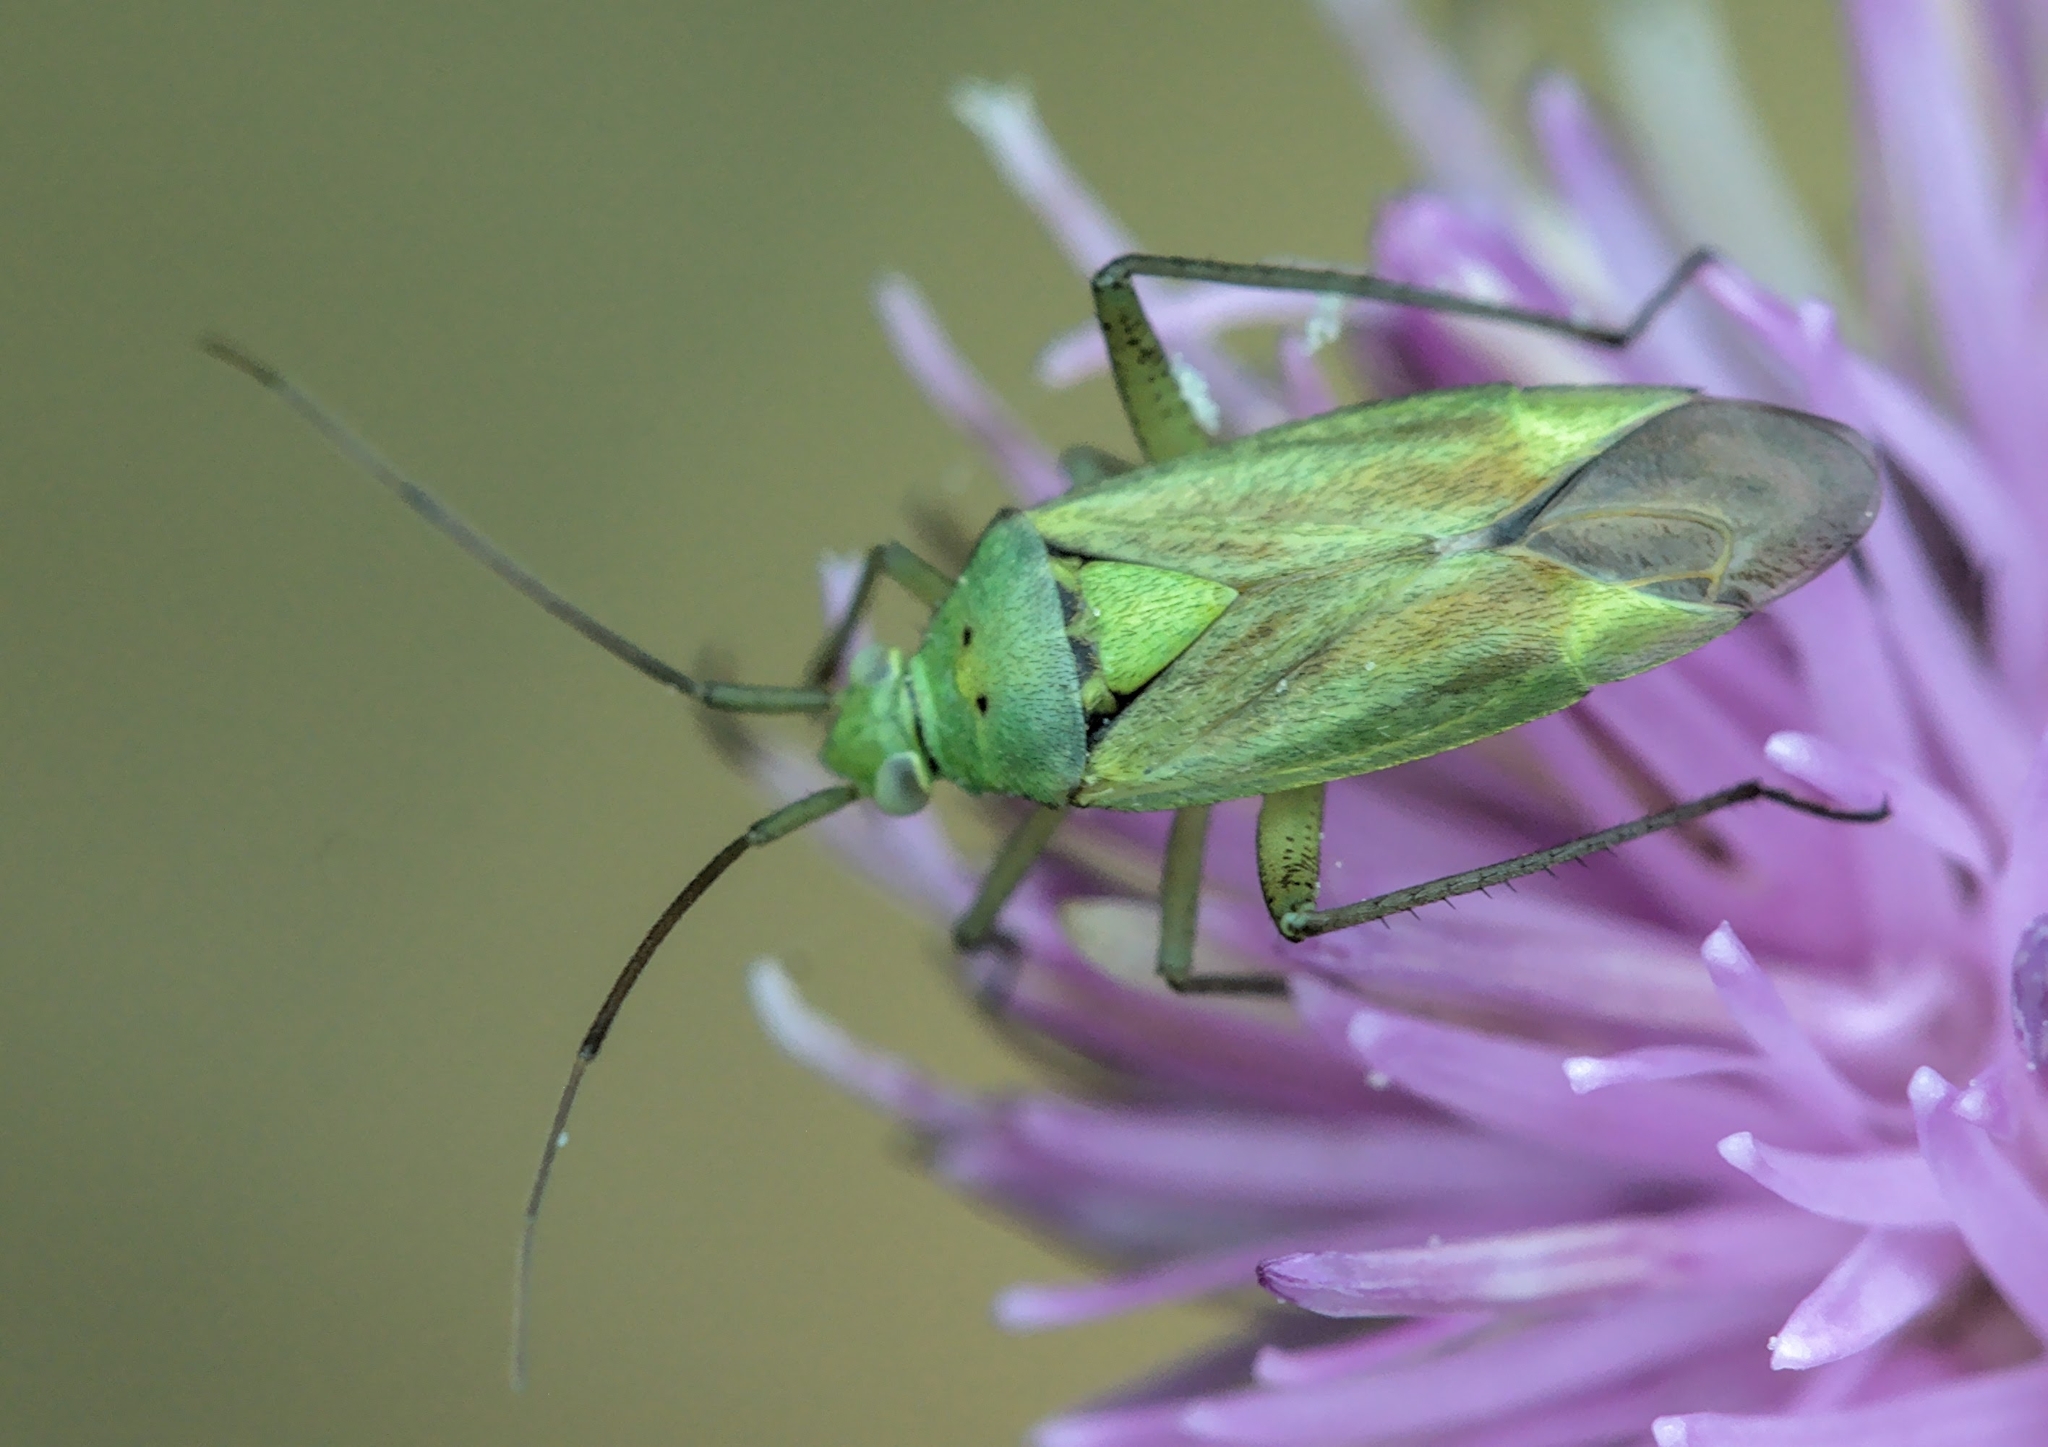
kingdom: Animalia
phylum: Arthropoda
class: Insecta
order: Hemiptera
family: Miridae
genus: Closterotomus
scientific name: Closterotomus norvegicus
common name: Plant bug
